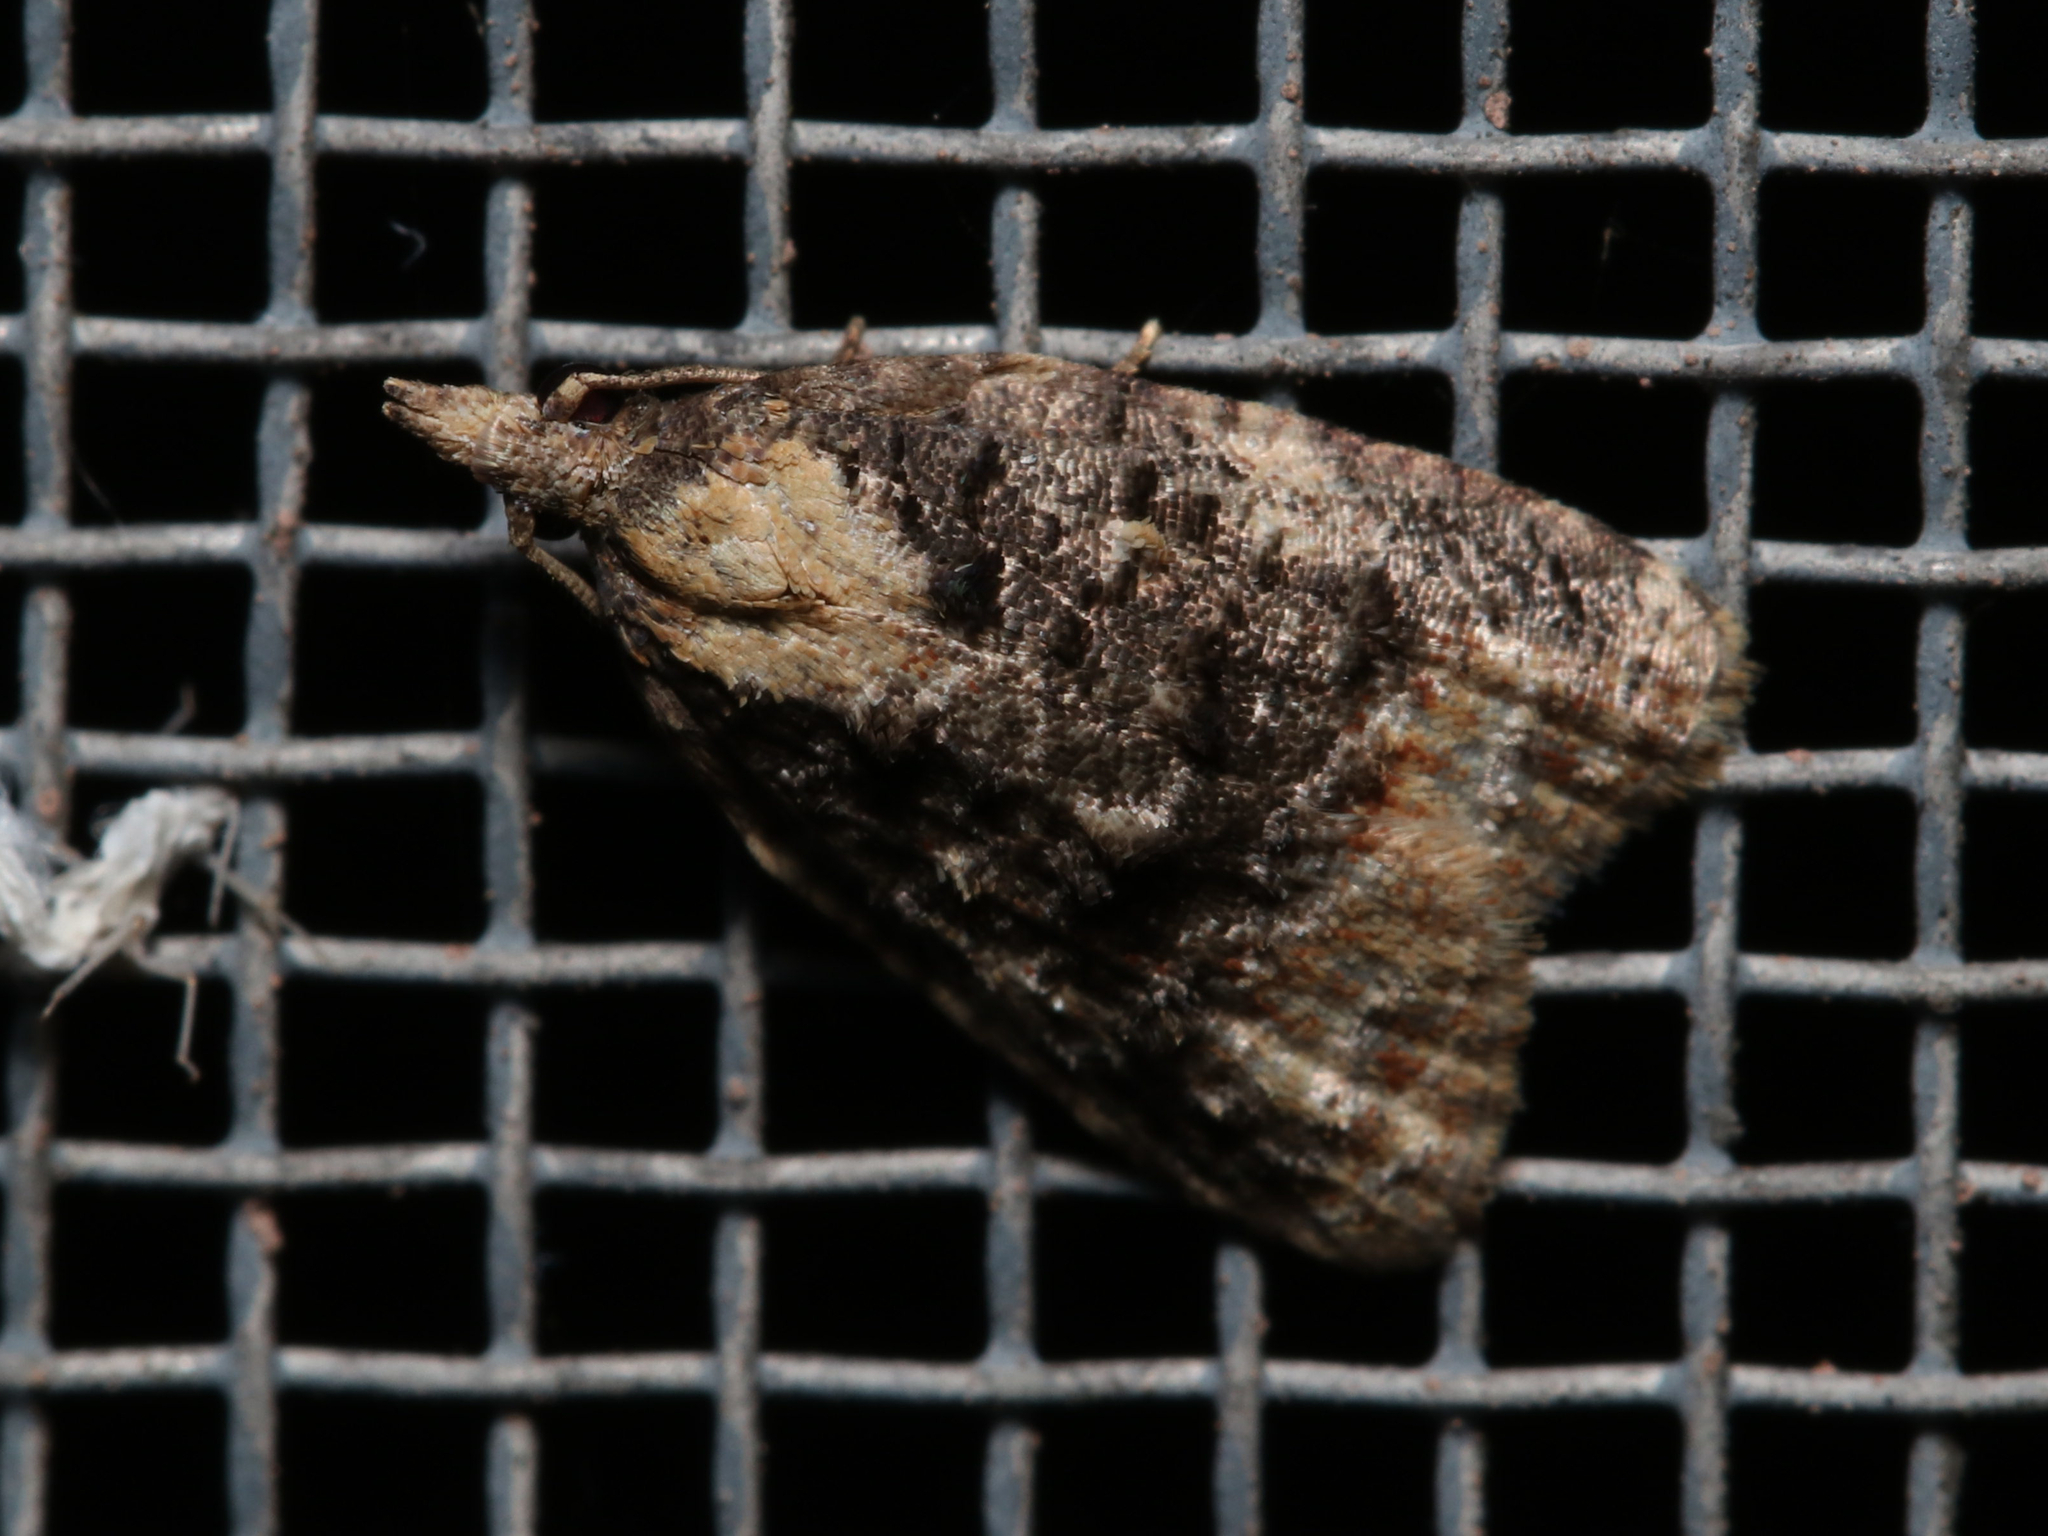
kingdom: Animalia
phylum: Arthropoda
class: Insecta
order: Lepidoptera
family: Tortricidae
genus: Platynota
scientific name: Platynota exasperatana
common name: Exasperating platynota moth
